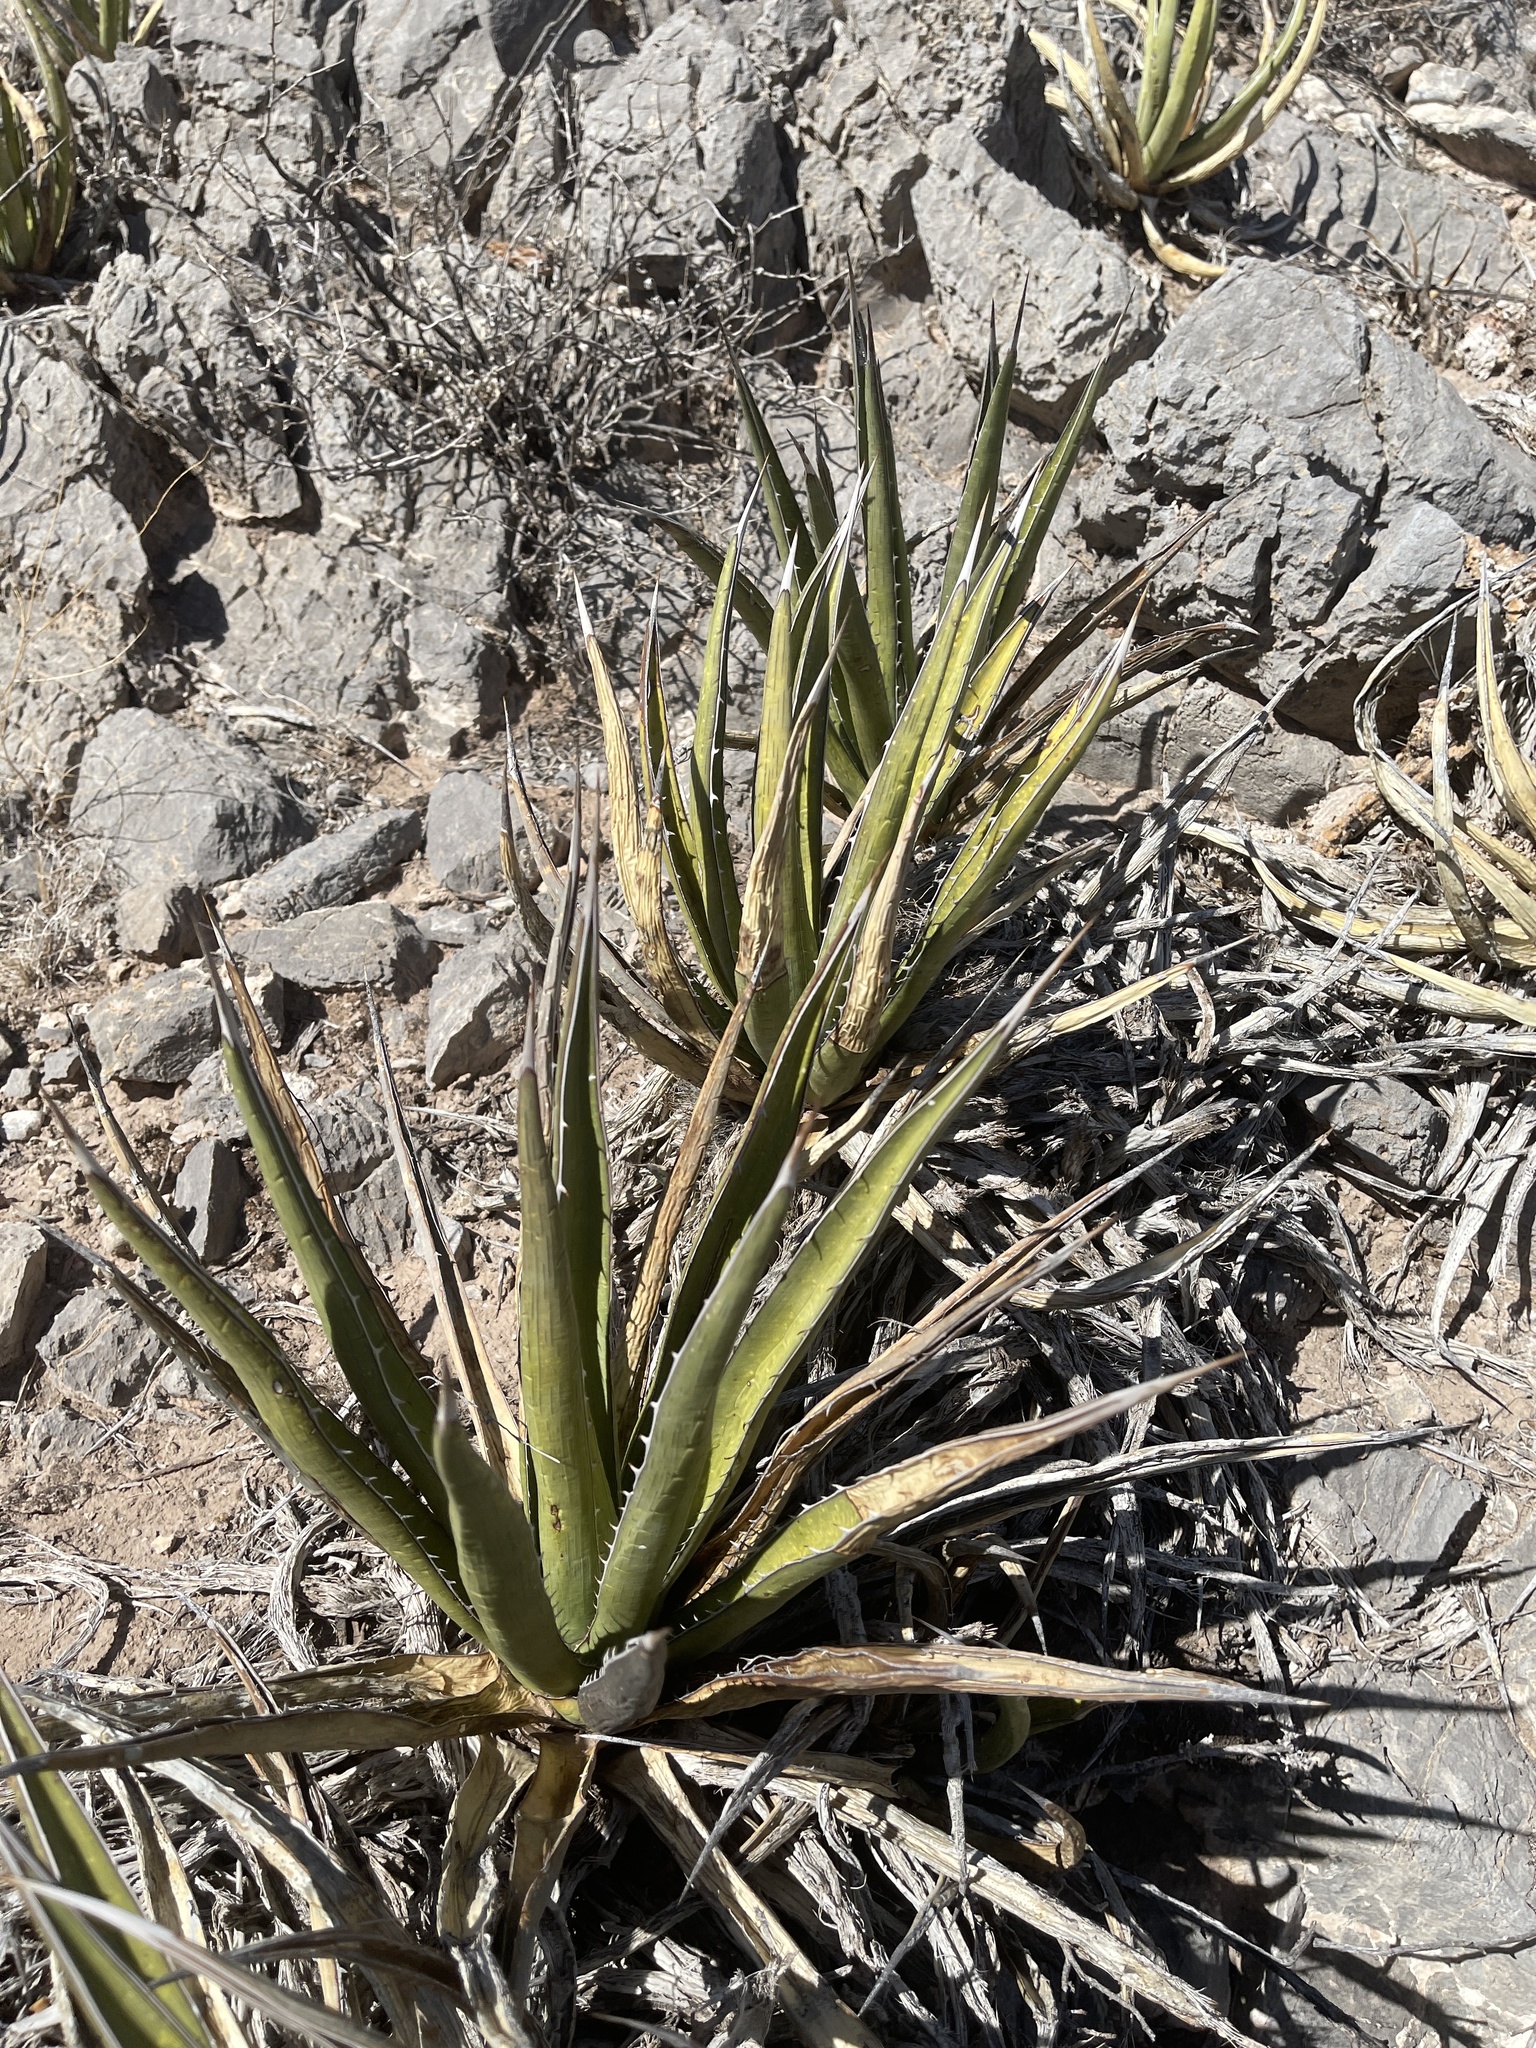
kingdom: Plantae
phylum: Tracheophyta
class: Liliopsida
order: Asparagales
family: Asparagaceae
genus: Agave
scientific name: Agave lechuguilla
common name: Lecheguilla agave
